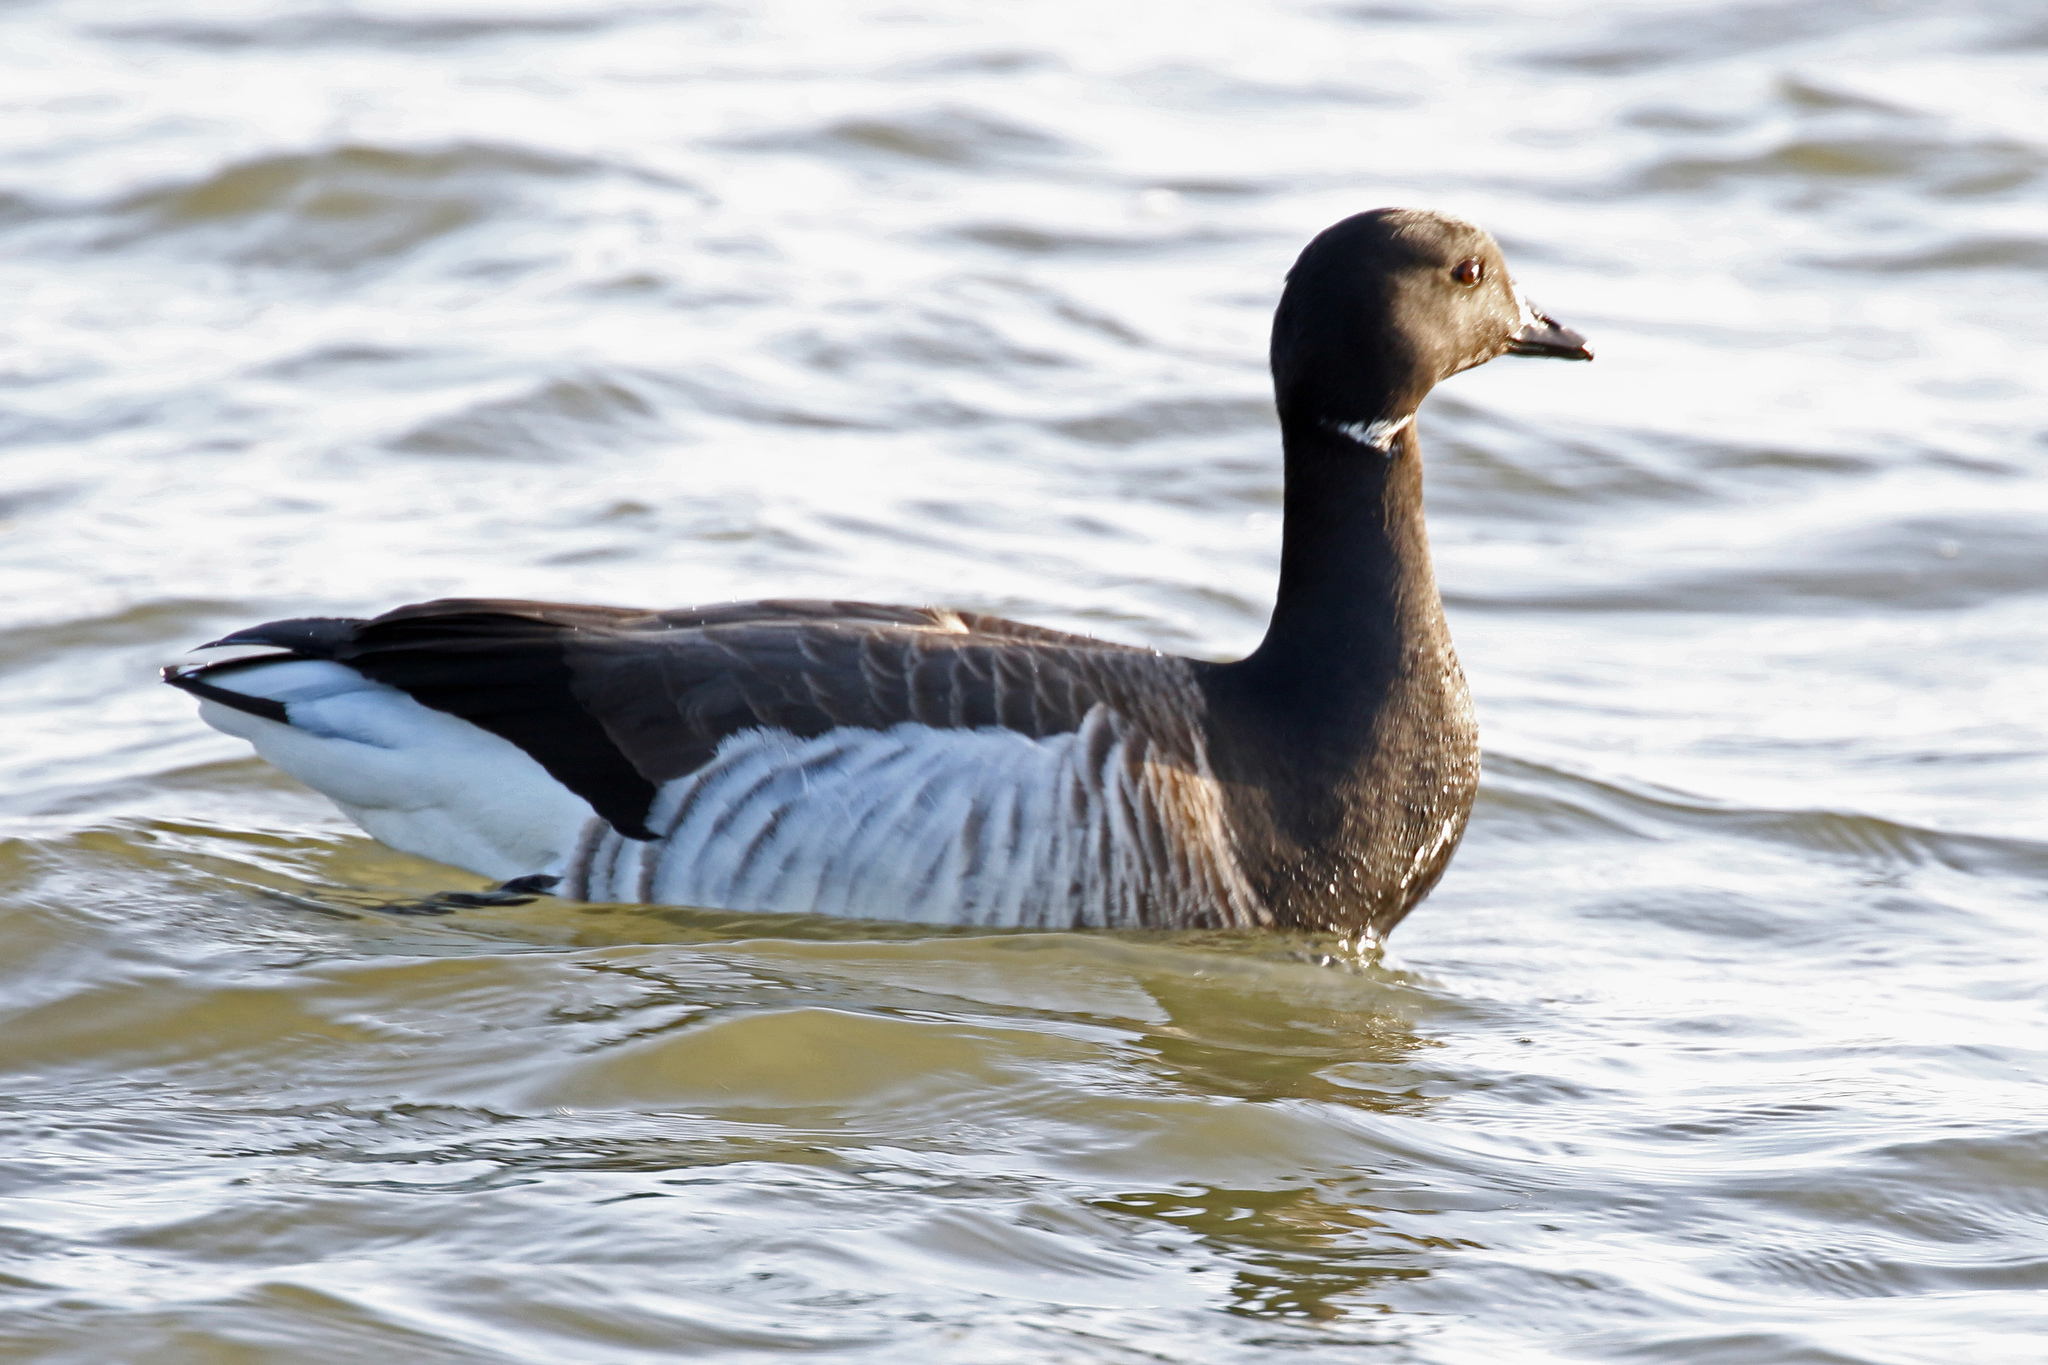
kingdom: Animalia
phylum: Chordata
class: Aves
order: Anseriformes
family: Anatidae
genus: Branta
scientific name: Branta bernicla
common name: Brant goose
